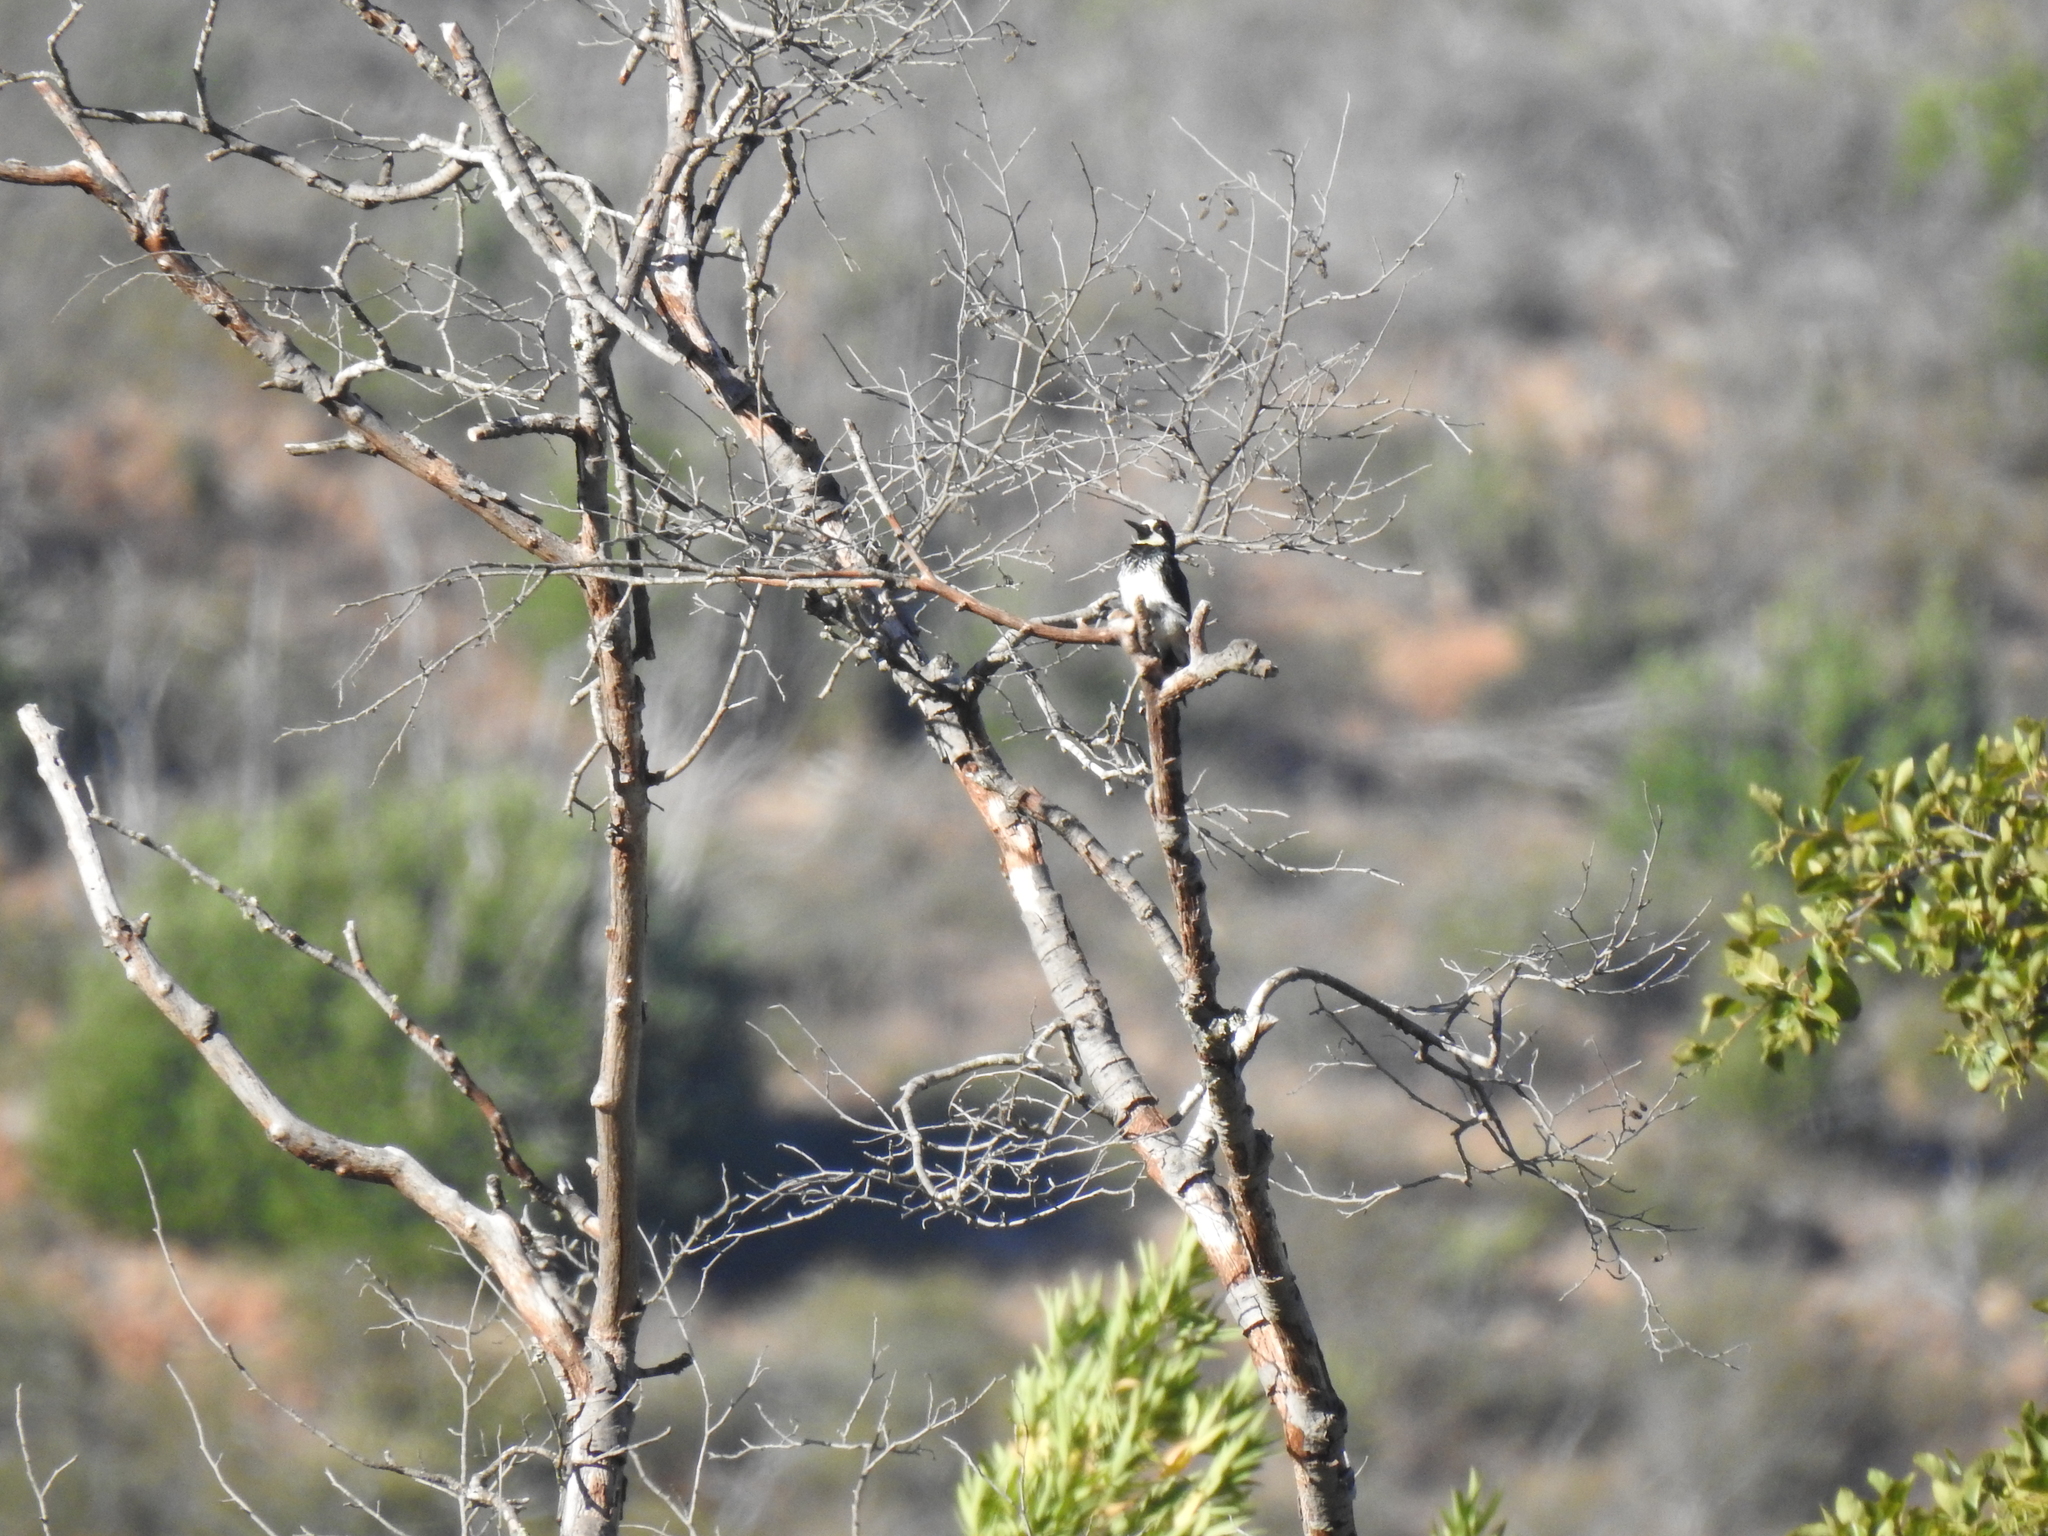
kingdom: Animalia
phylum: Chordata
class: Aves
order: Piciformes
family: Picidae
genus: Melanerpes
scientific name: Melanerpes formicivorus
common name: Acorn woodpecker
